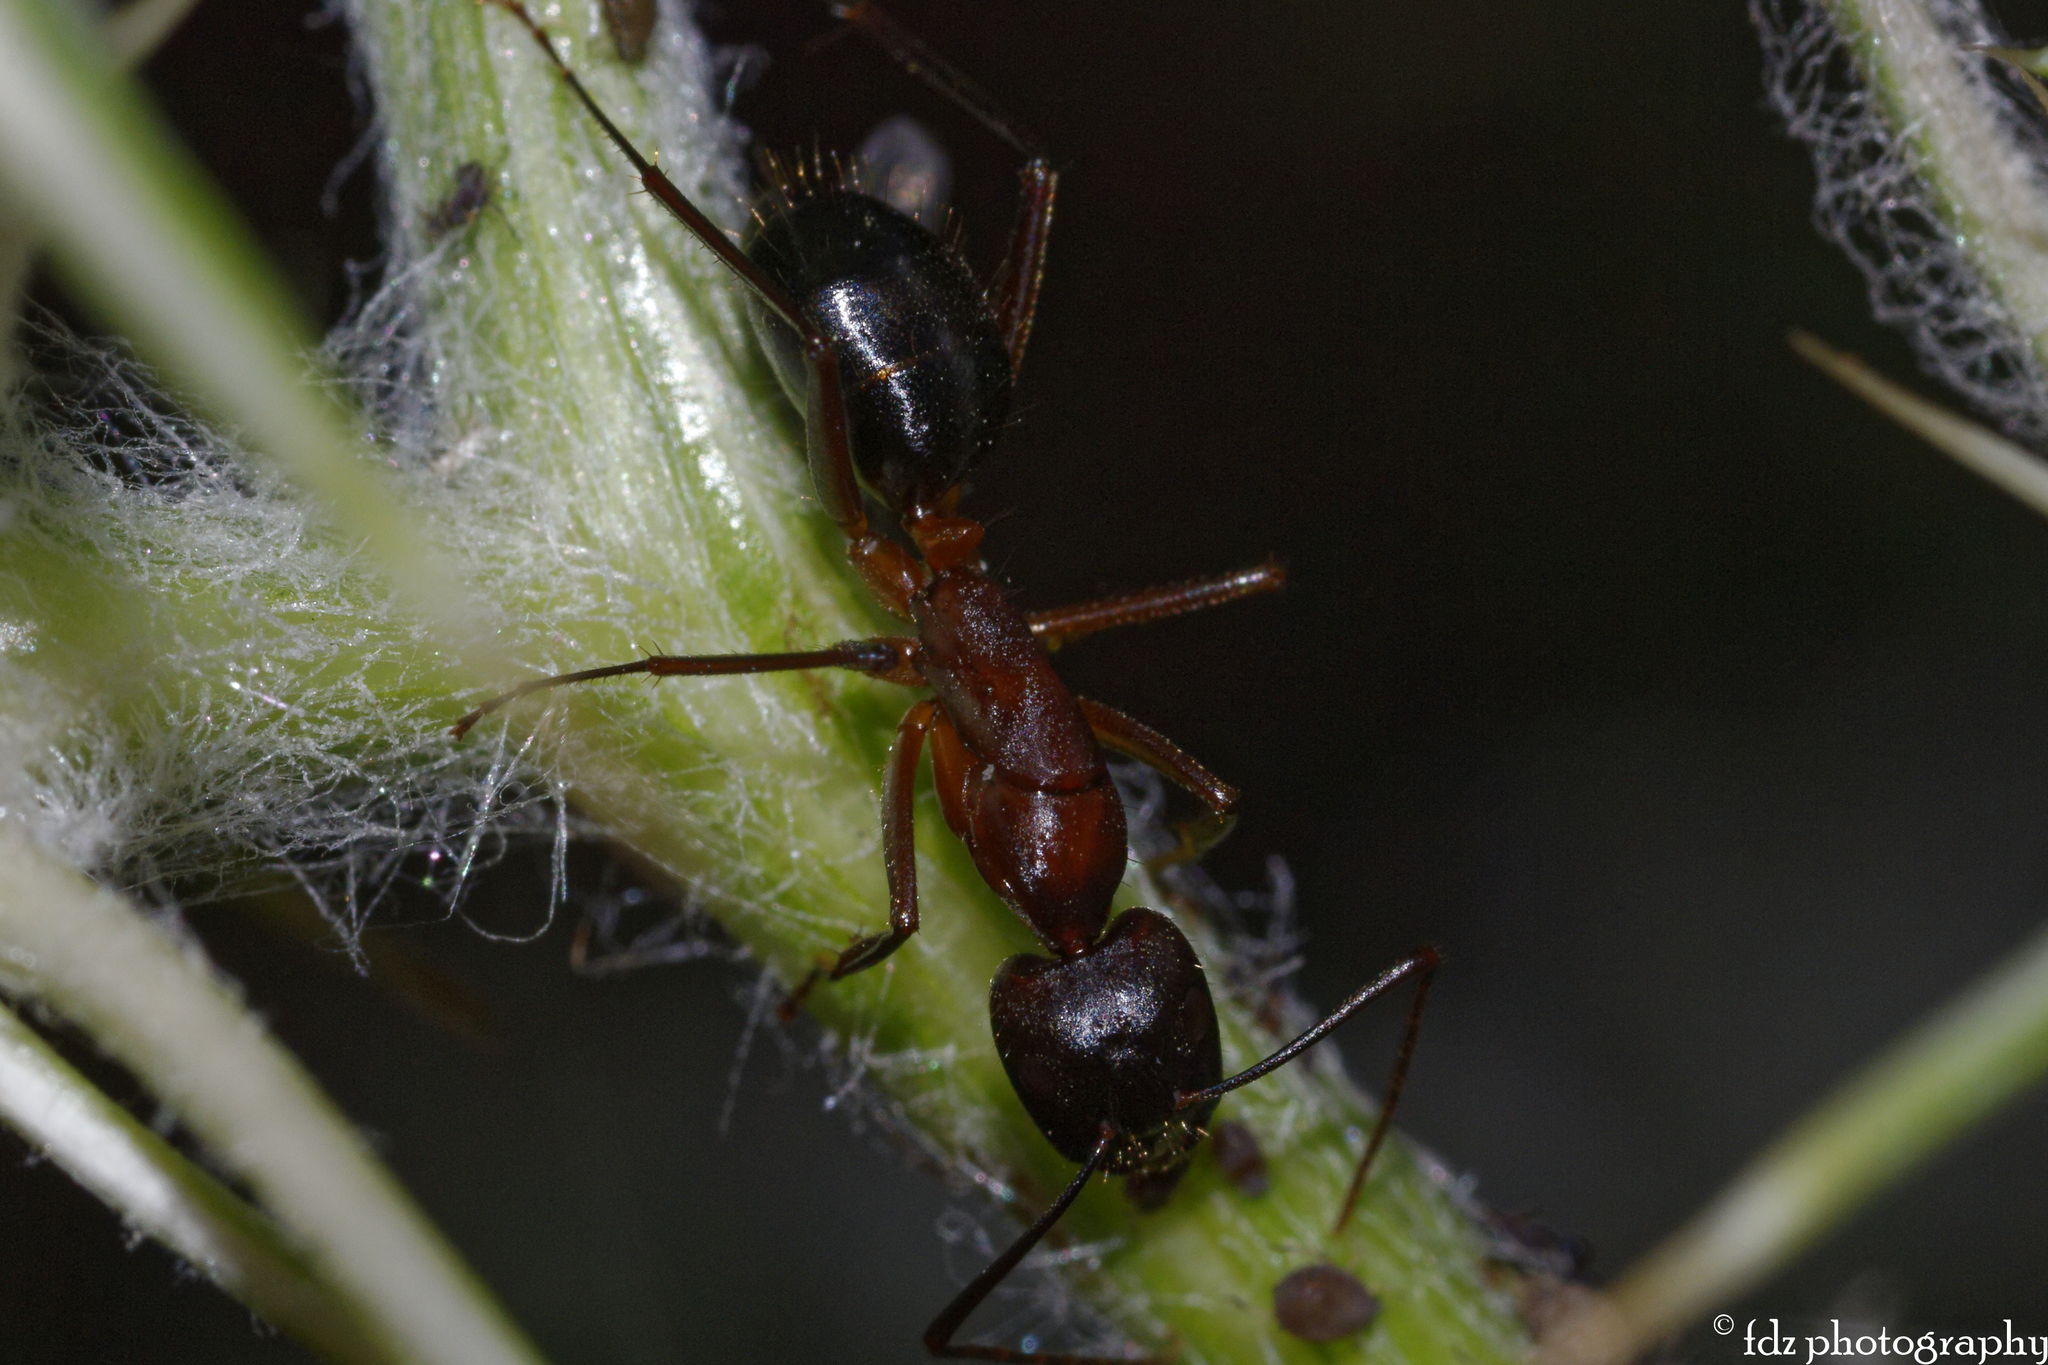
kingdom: Animalia
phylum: Arthropoda
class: Insecta
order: Hymenoptera
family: Formicidae
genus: Camponotus
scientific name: Camponotus barbaricus
